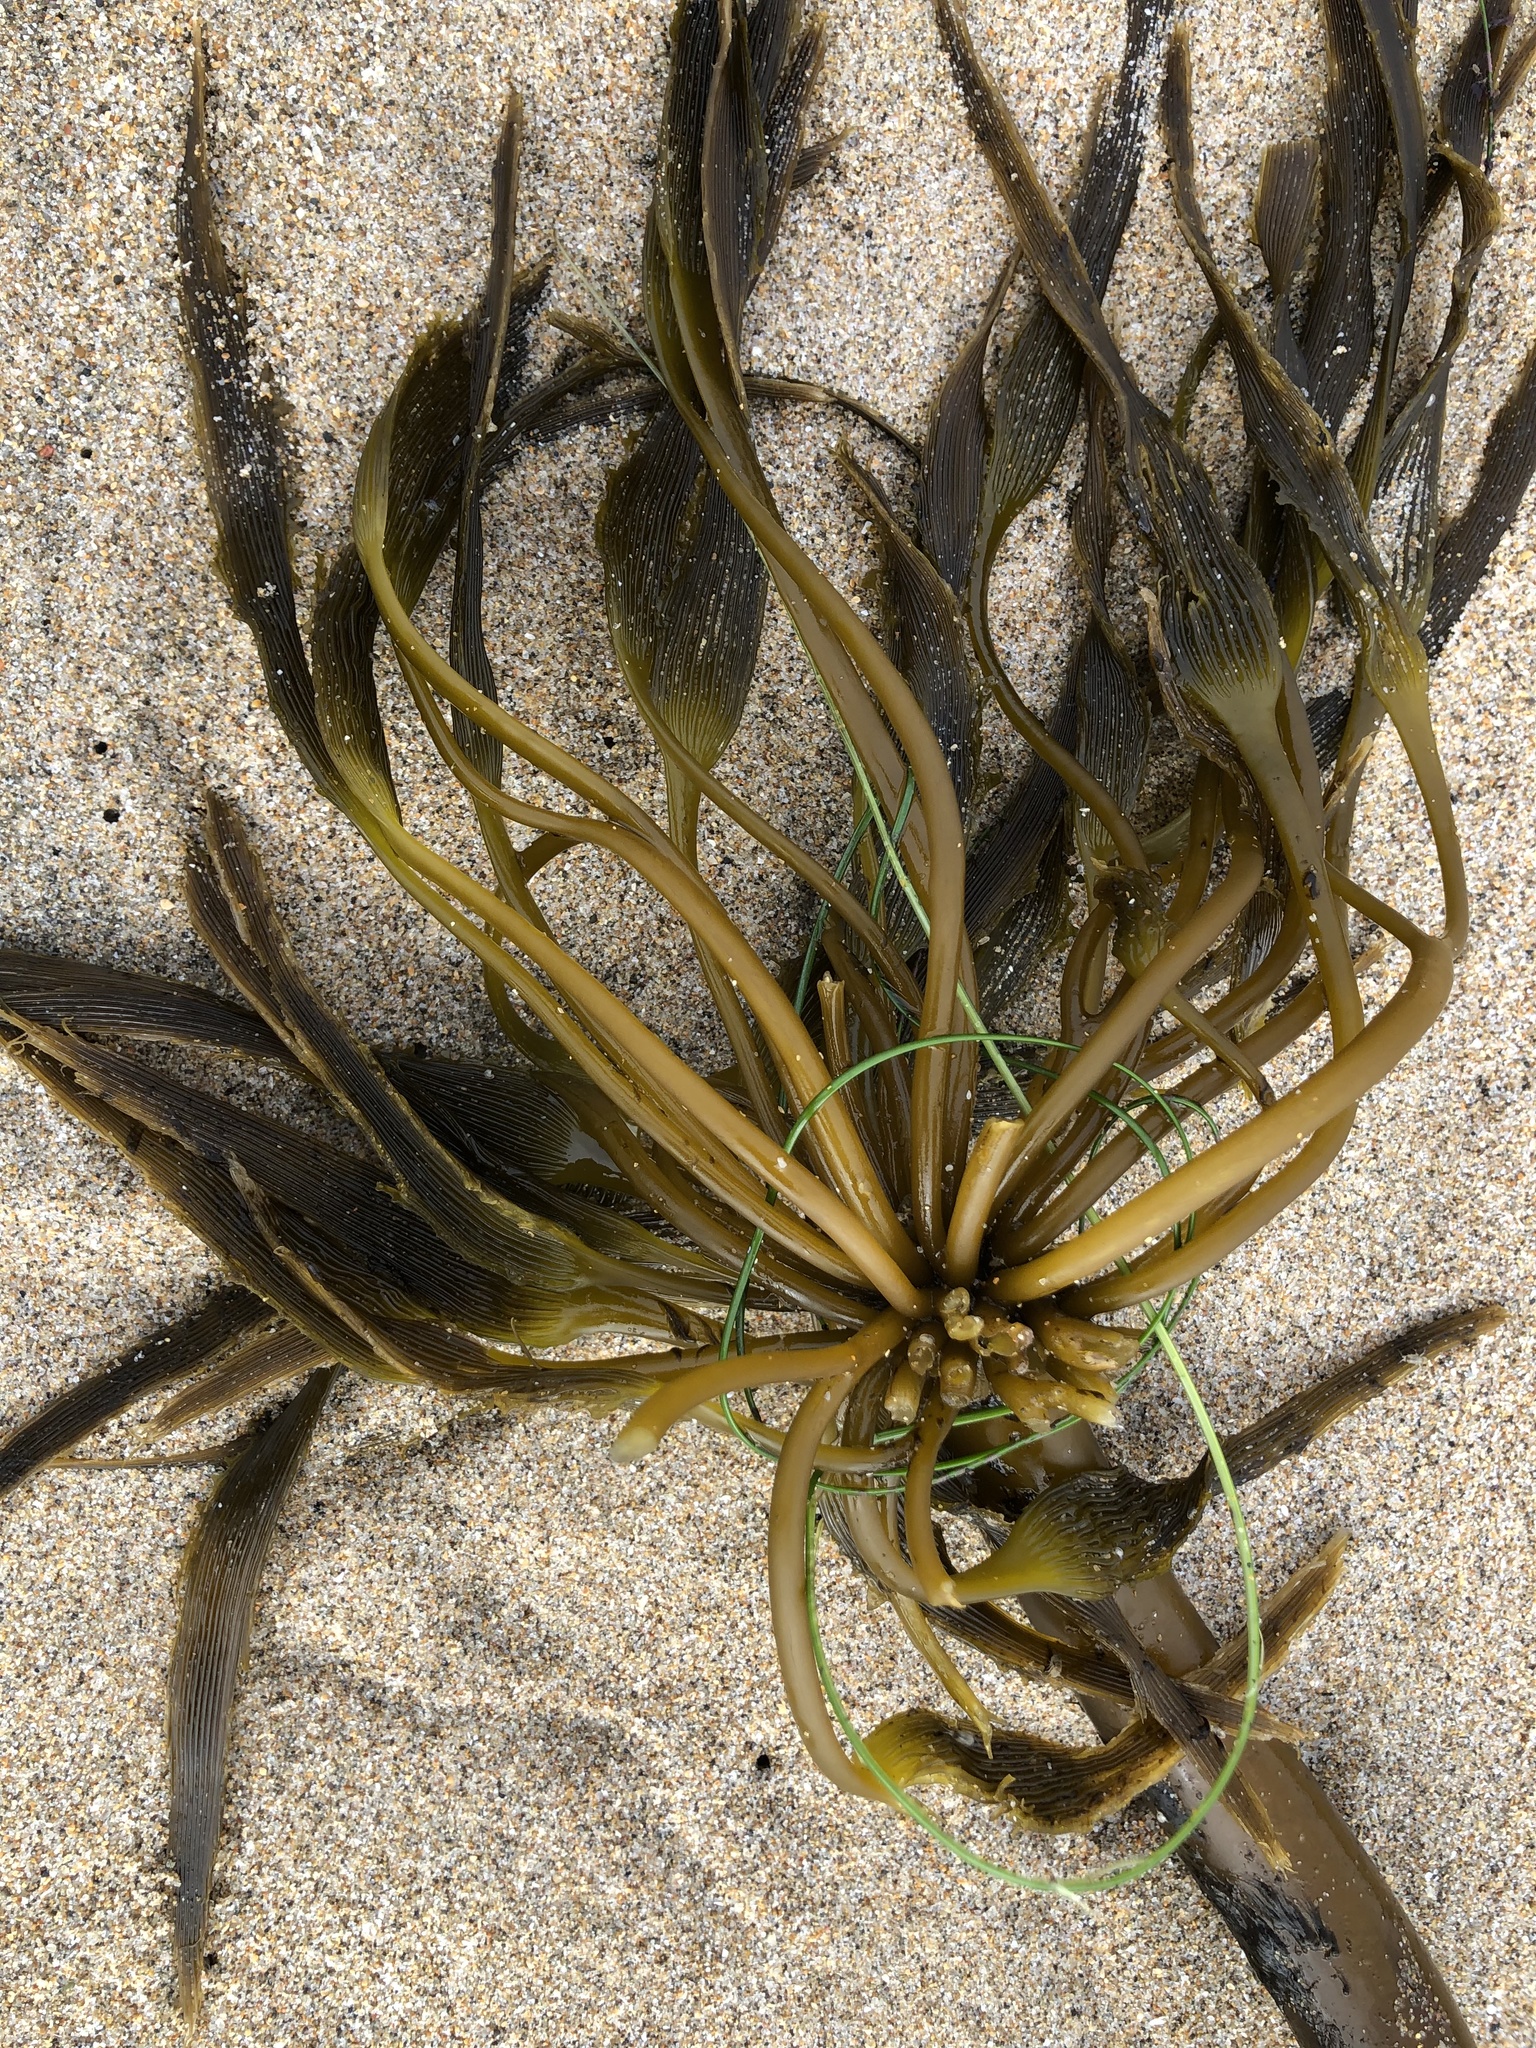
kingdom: Chromista
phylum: Ochrophyta
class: Phaeophyceae
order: Laminariales
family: Laminariaceae
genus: Postelsia
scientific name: Postelsia palmiformis
